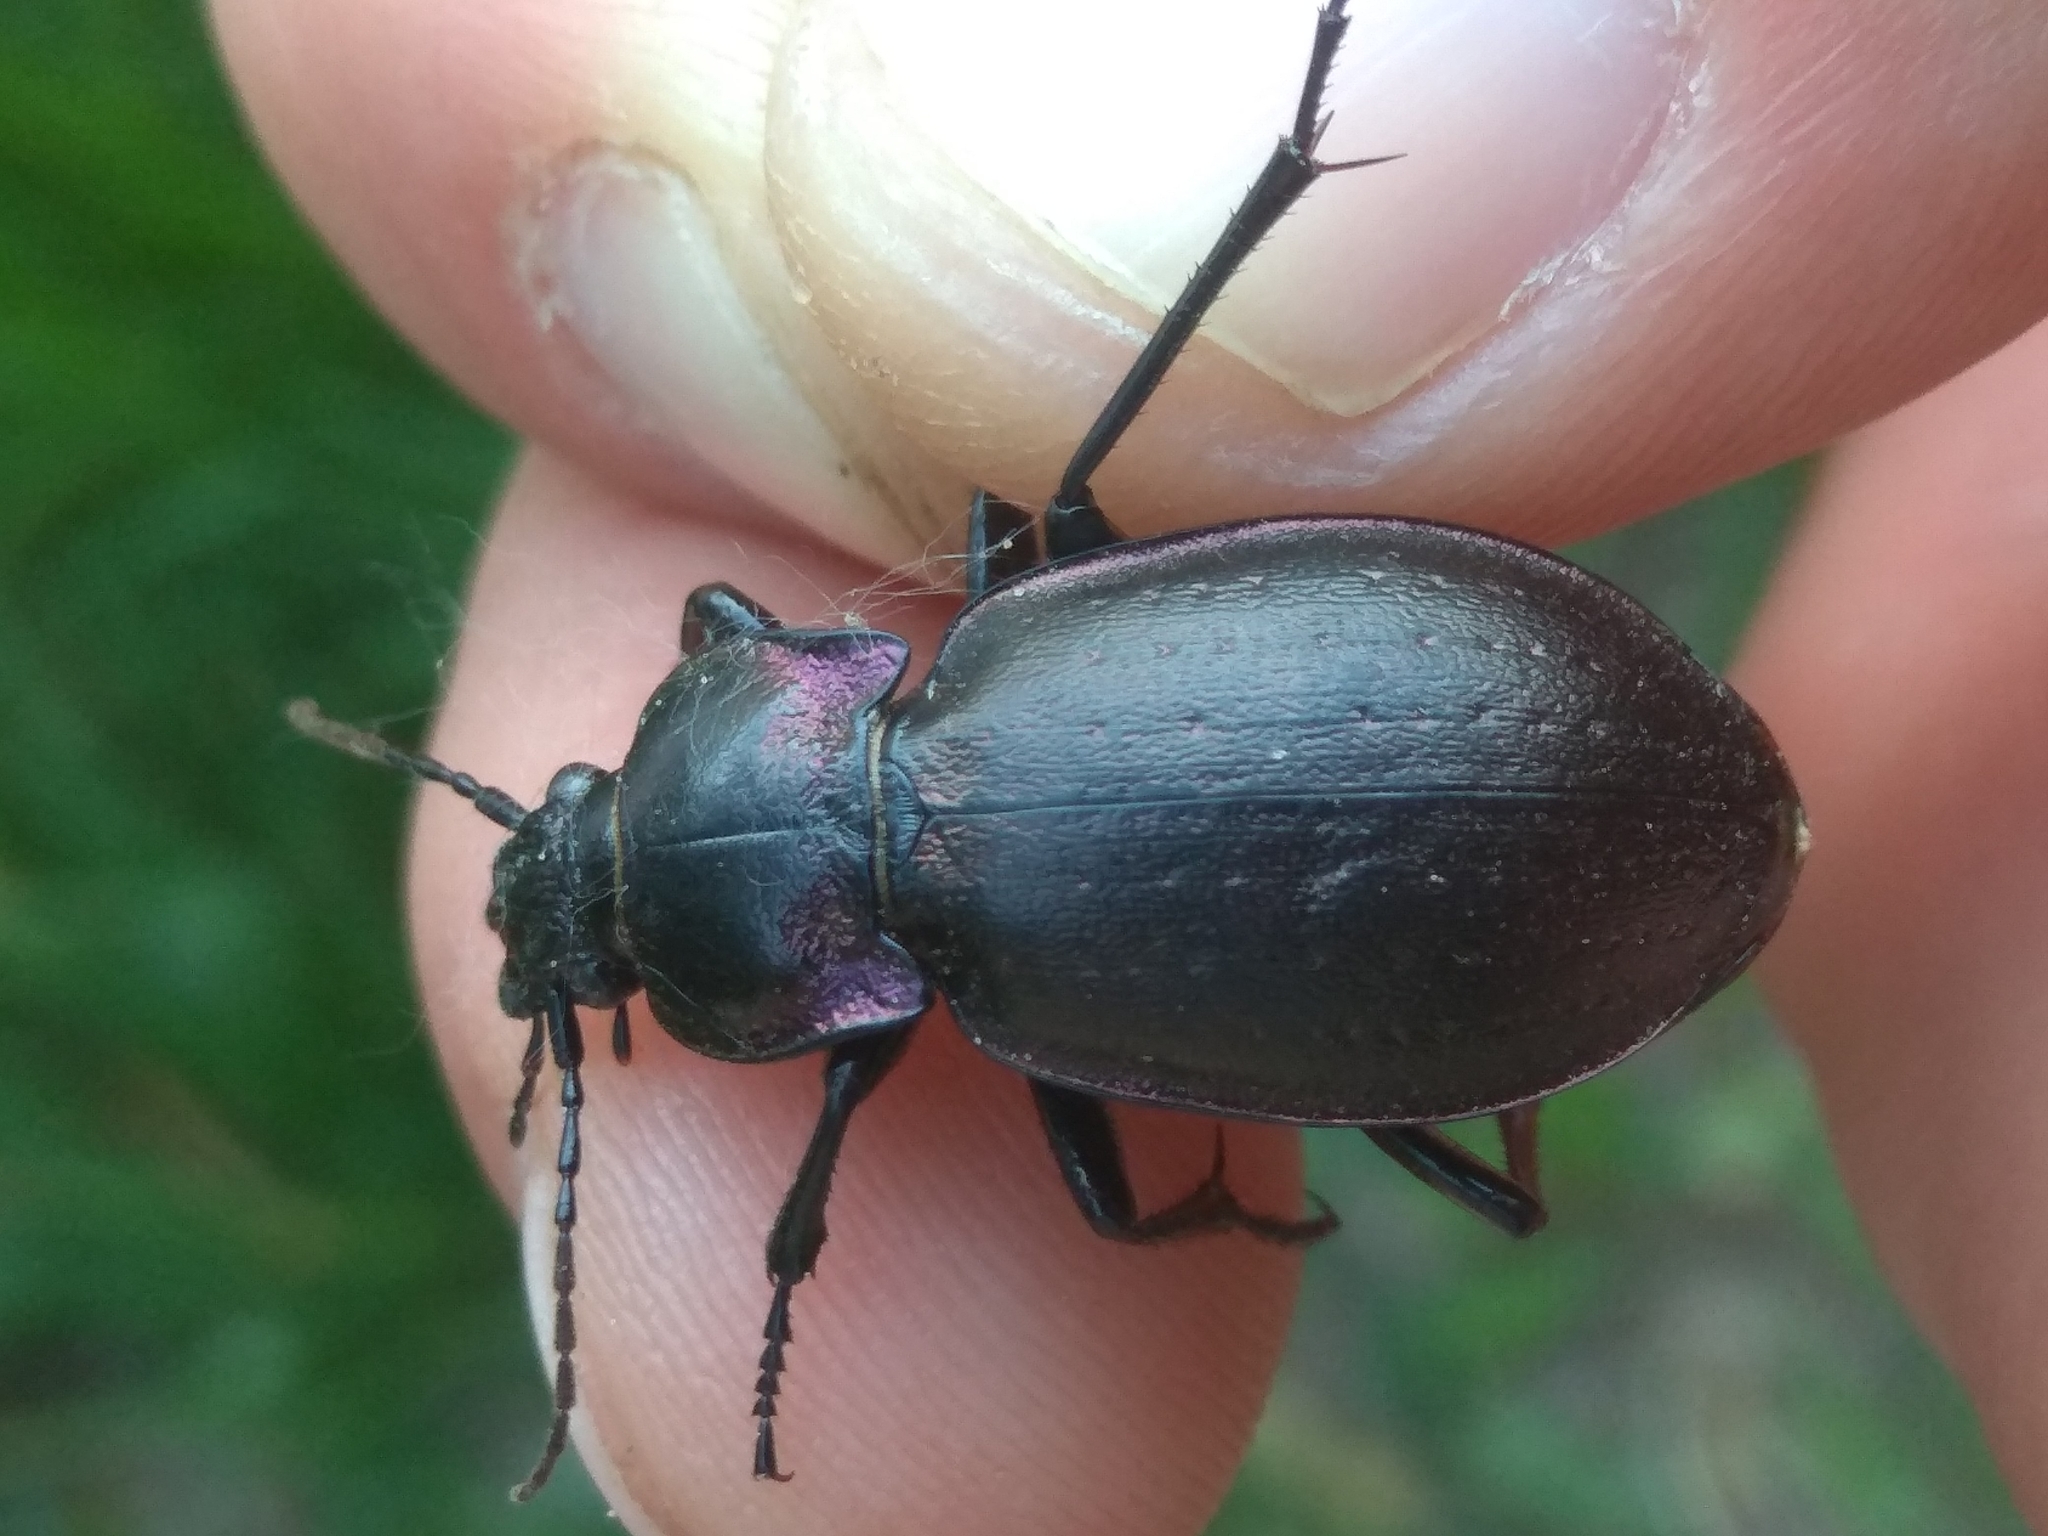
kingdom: Animalia
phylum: Arthropoda
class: Insecta
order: Coleoptera
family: Carabidae
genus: Carabus
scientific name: Carabus nemoralis
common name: European ground beetle
